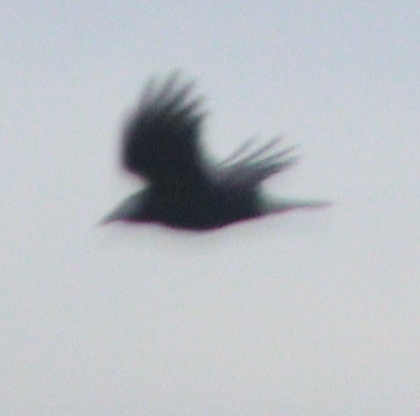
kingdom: Animalia
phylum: Chordata
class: Aves
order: Passeriformes
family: Corvidae
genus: Corvus
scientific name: Corvus corone
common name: Carrion crow
